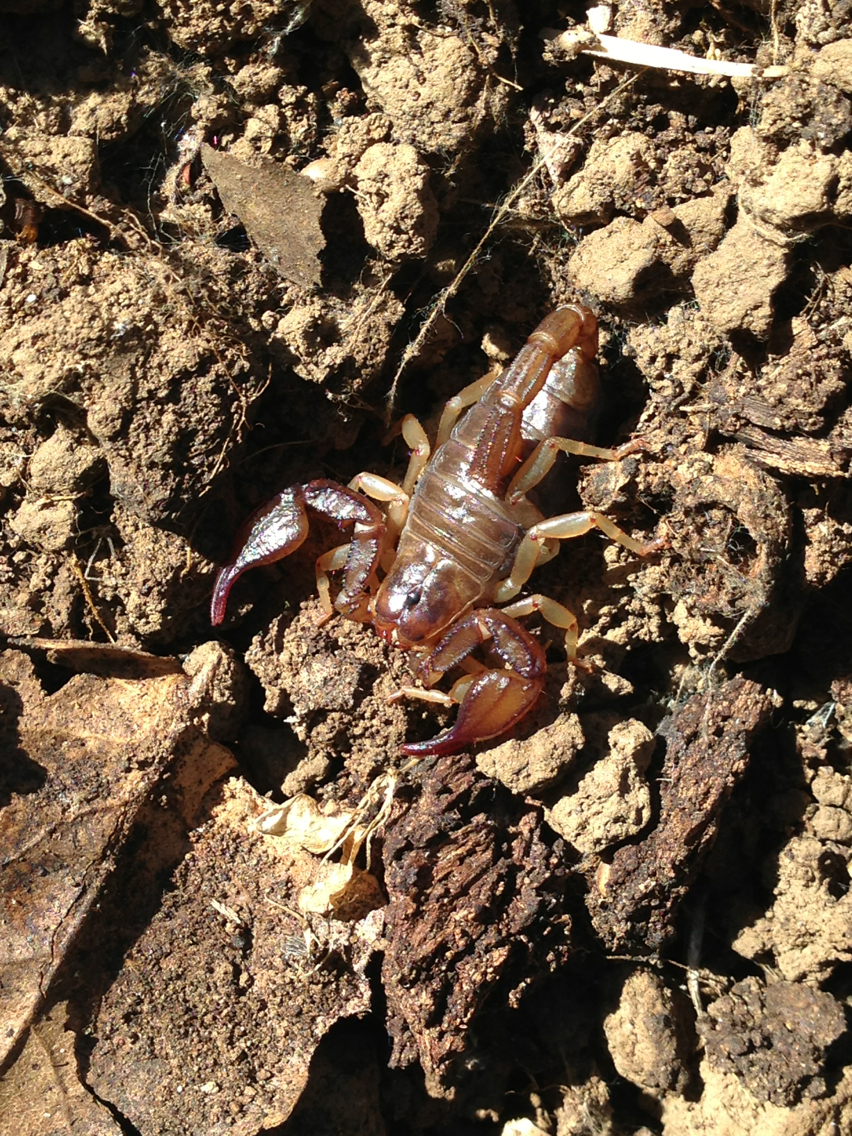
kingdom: Animalia
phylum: Arthropoda
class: Arachnida
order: Scorpiones
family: Chactidae
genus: Uroctonus
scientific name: Uroctonus mordax
